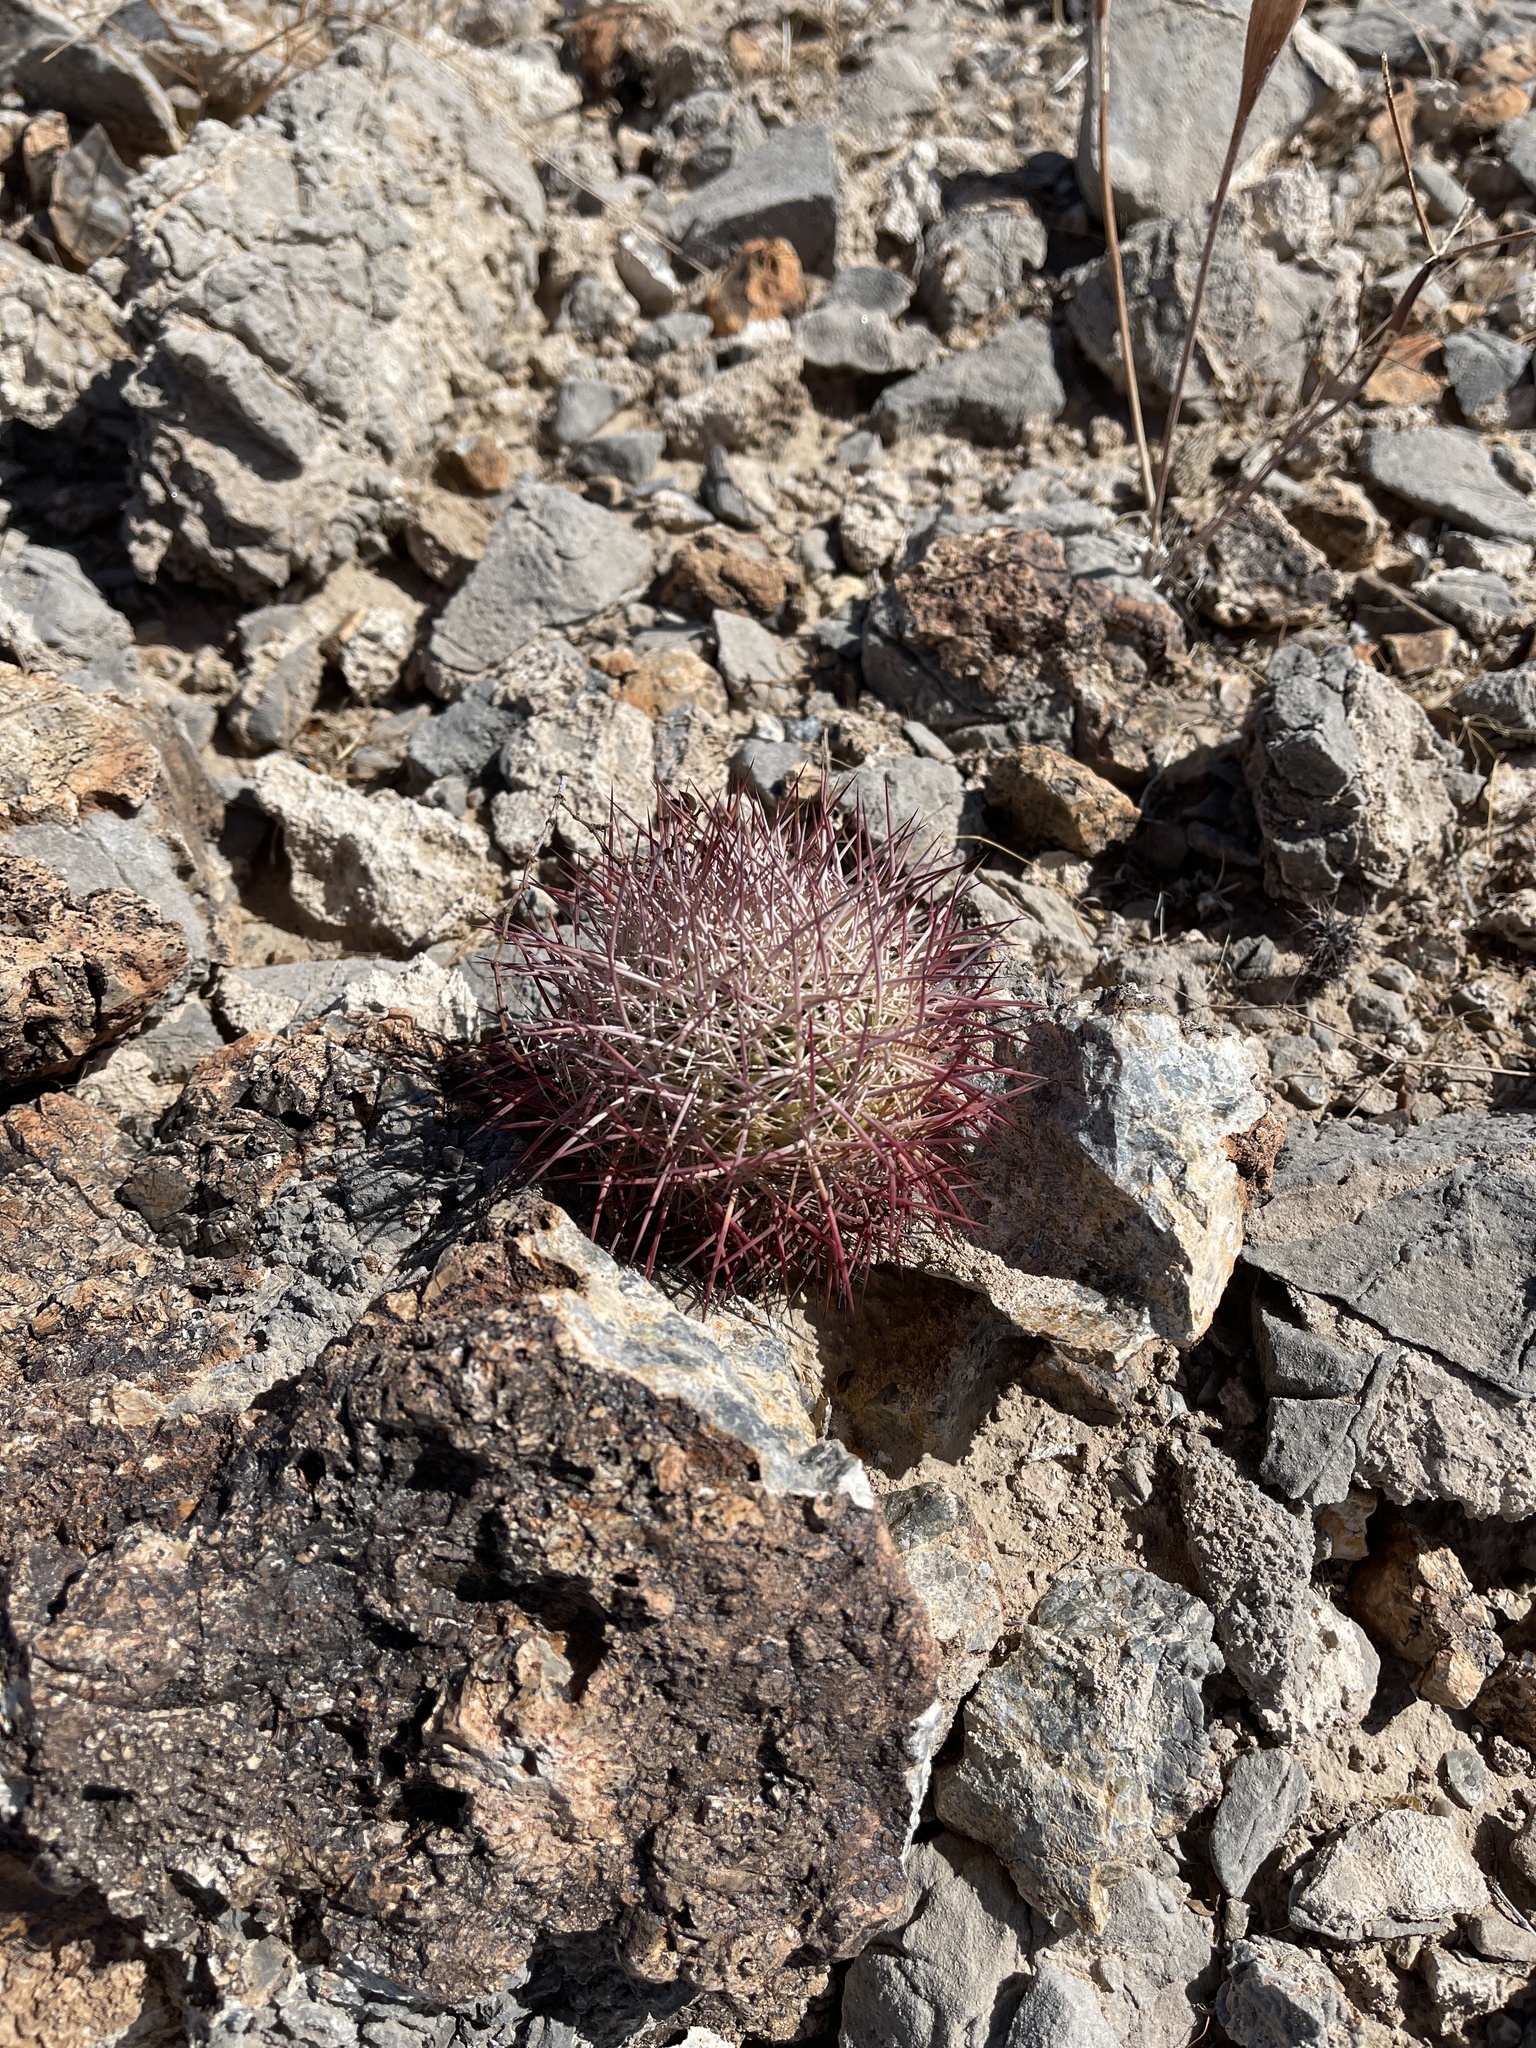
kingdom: Plantae
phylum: Tracheophyta
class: Magnoliopsida
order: Caryophyllales
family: Cactaceae
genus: Sclerocactus
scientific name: Sclerocactus johnsonii
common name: Eight-spine fishhook cactus
